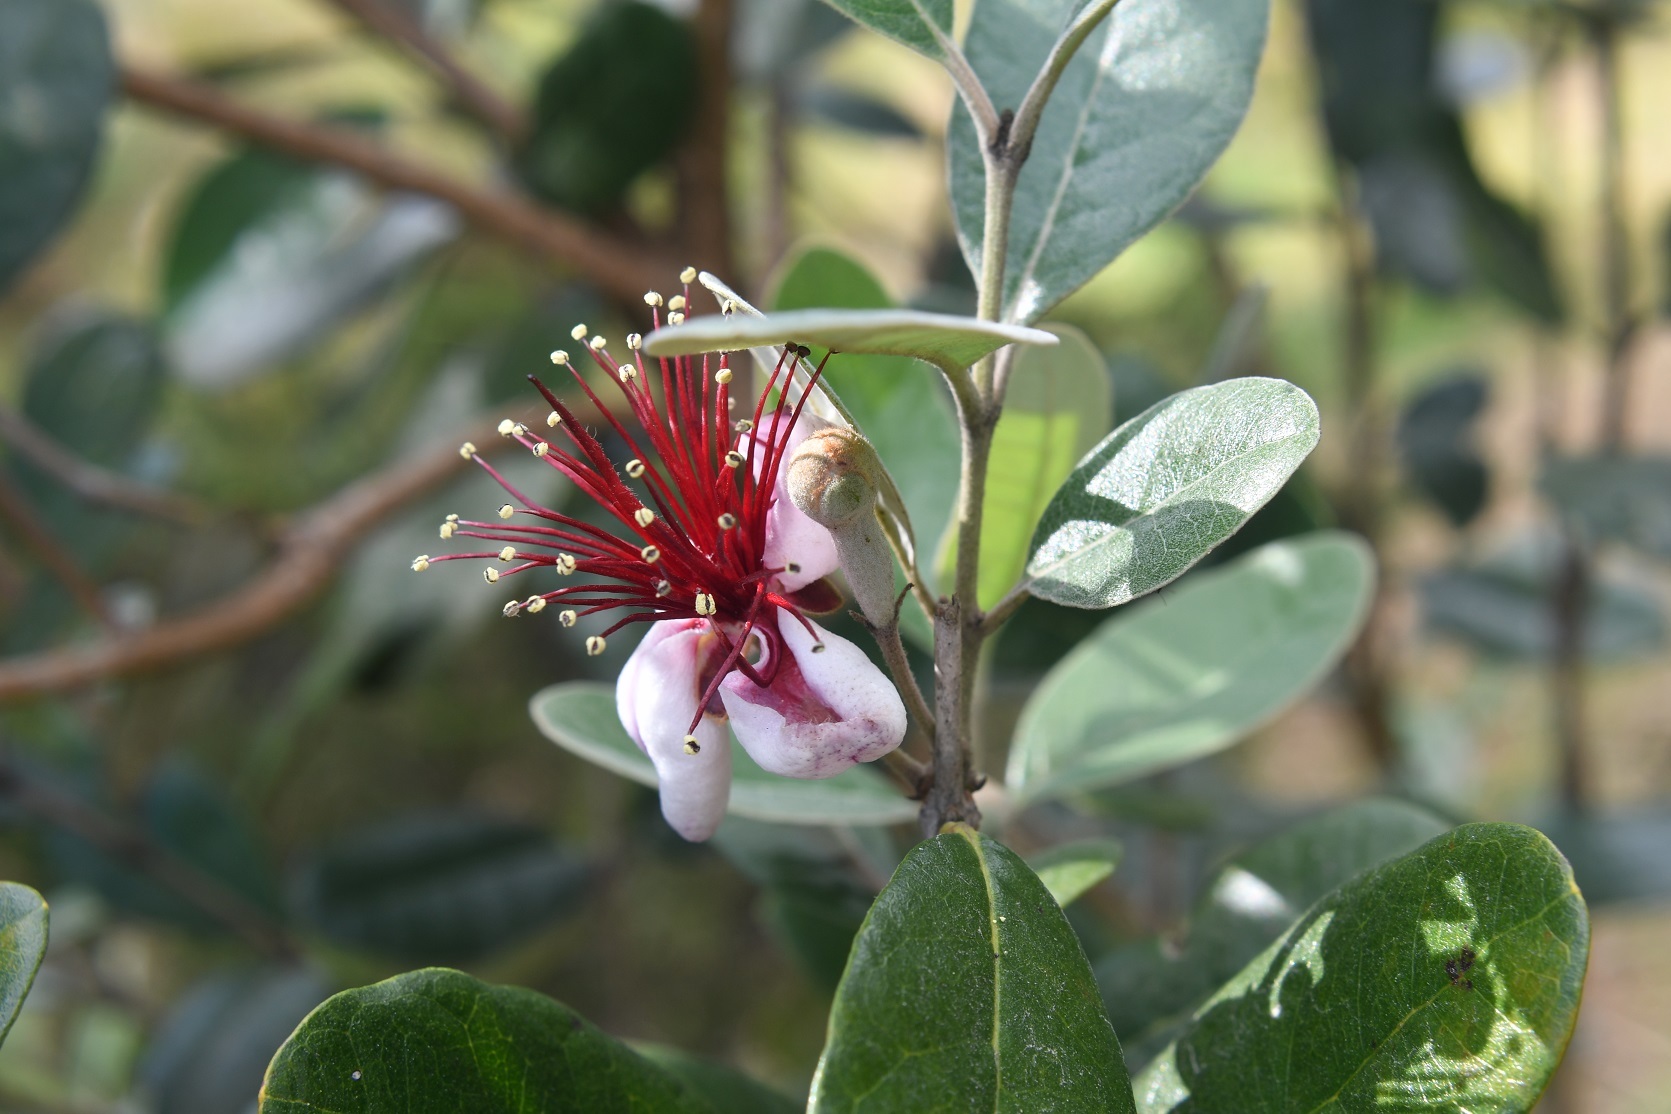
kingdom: Plantae
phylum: Tracheophyta
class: Magnoliopsida
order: Myrtales
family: Myrtaceae
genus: Feijoa
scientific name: Feijoa sellowiana
